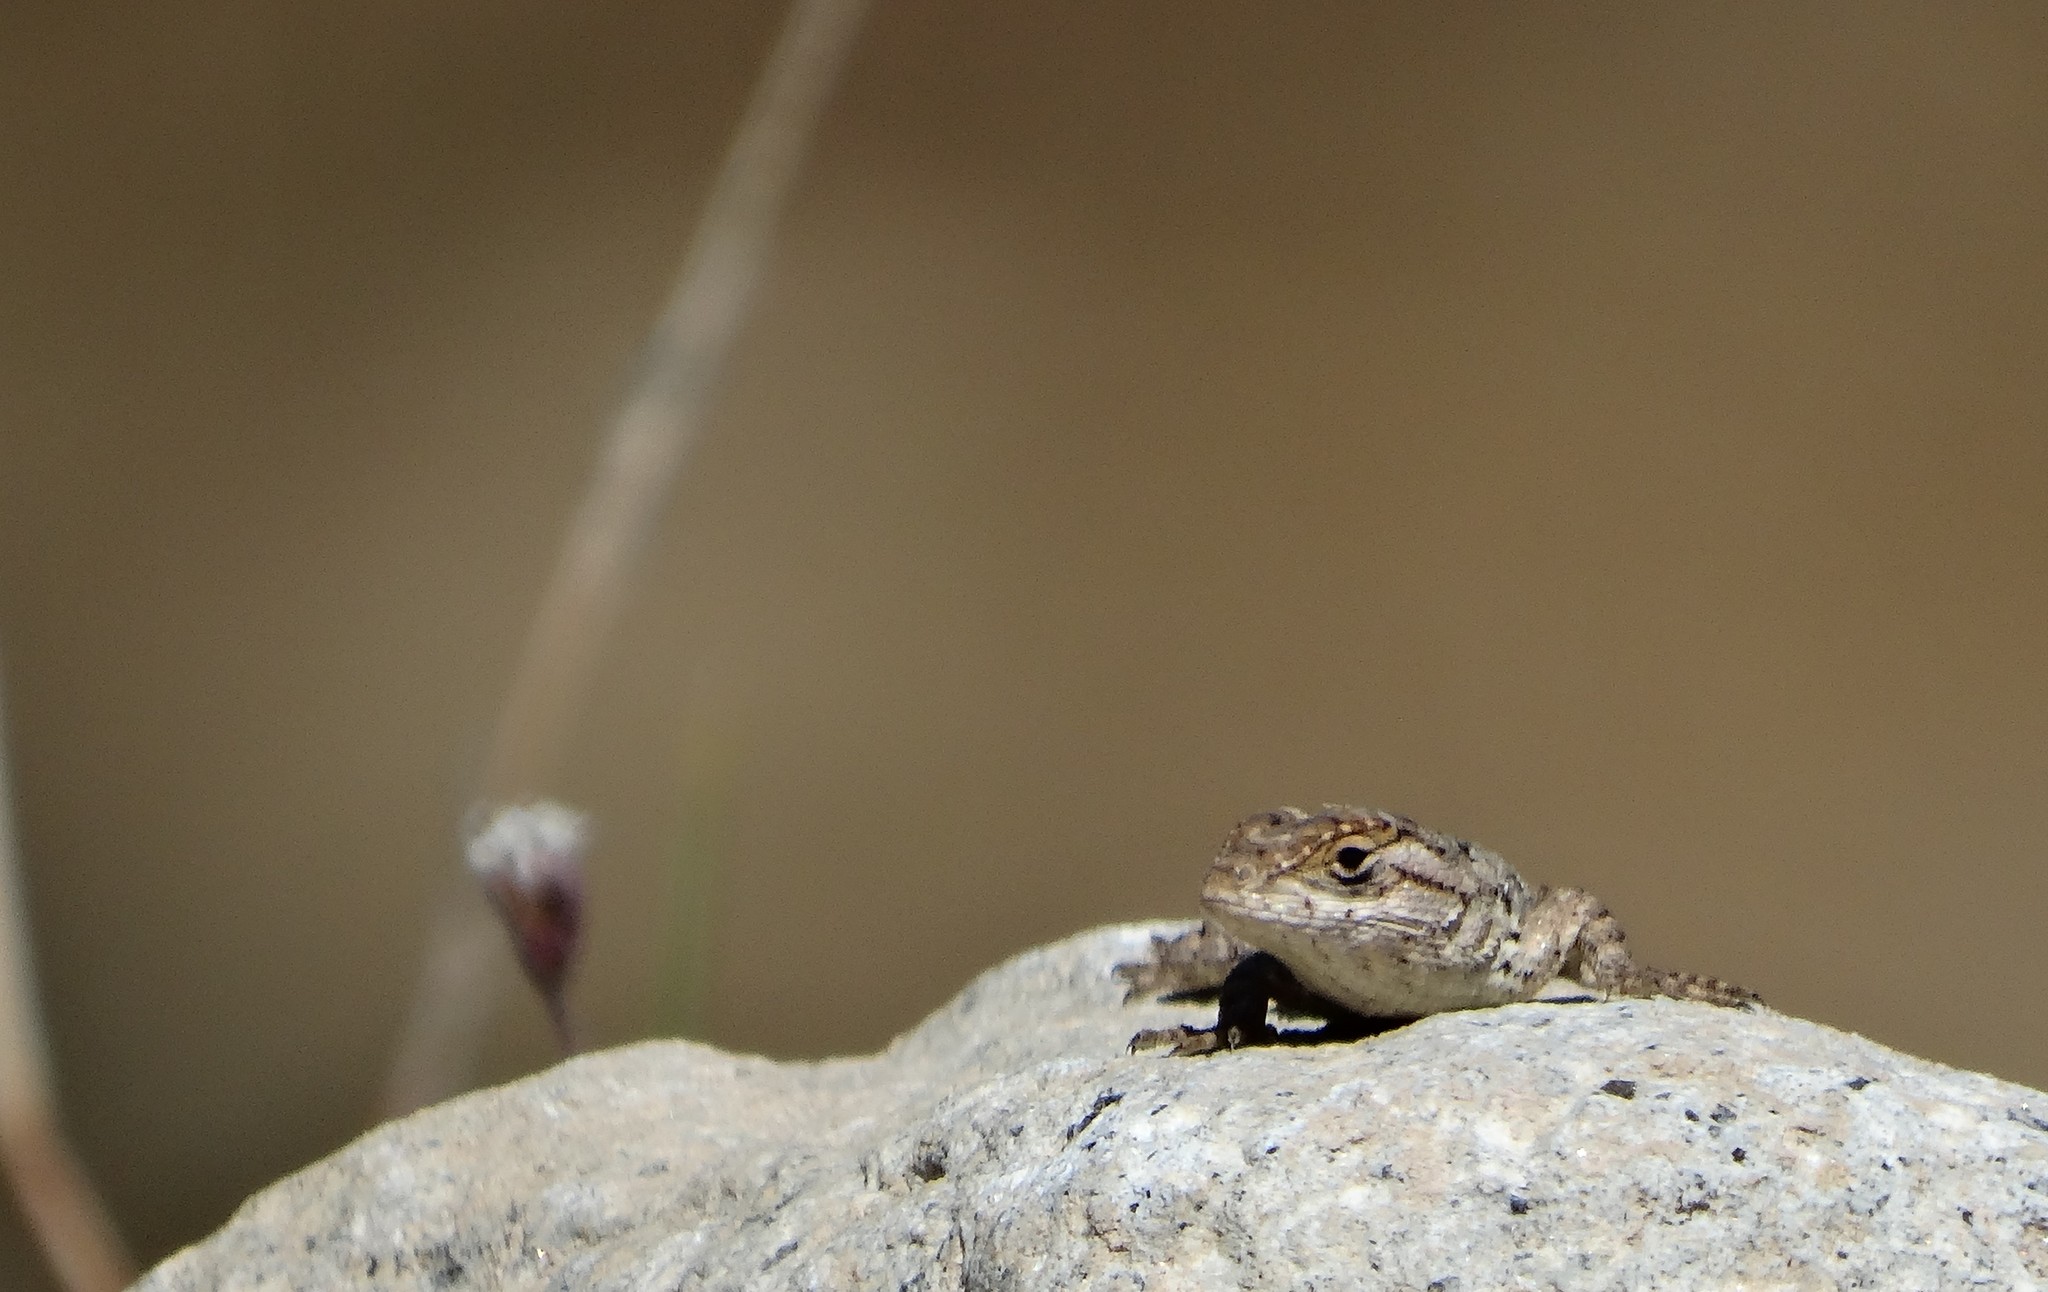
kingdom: Animalia
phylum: Chordata
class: Squamata
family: Phrynosomatidae
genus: Sceloporus
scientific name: Sceloporus spinosus
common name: Blue-spotted spiny lizard [caeruleopunctatus]
